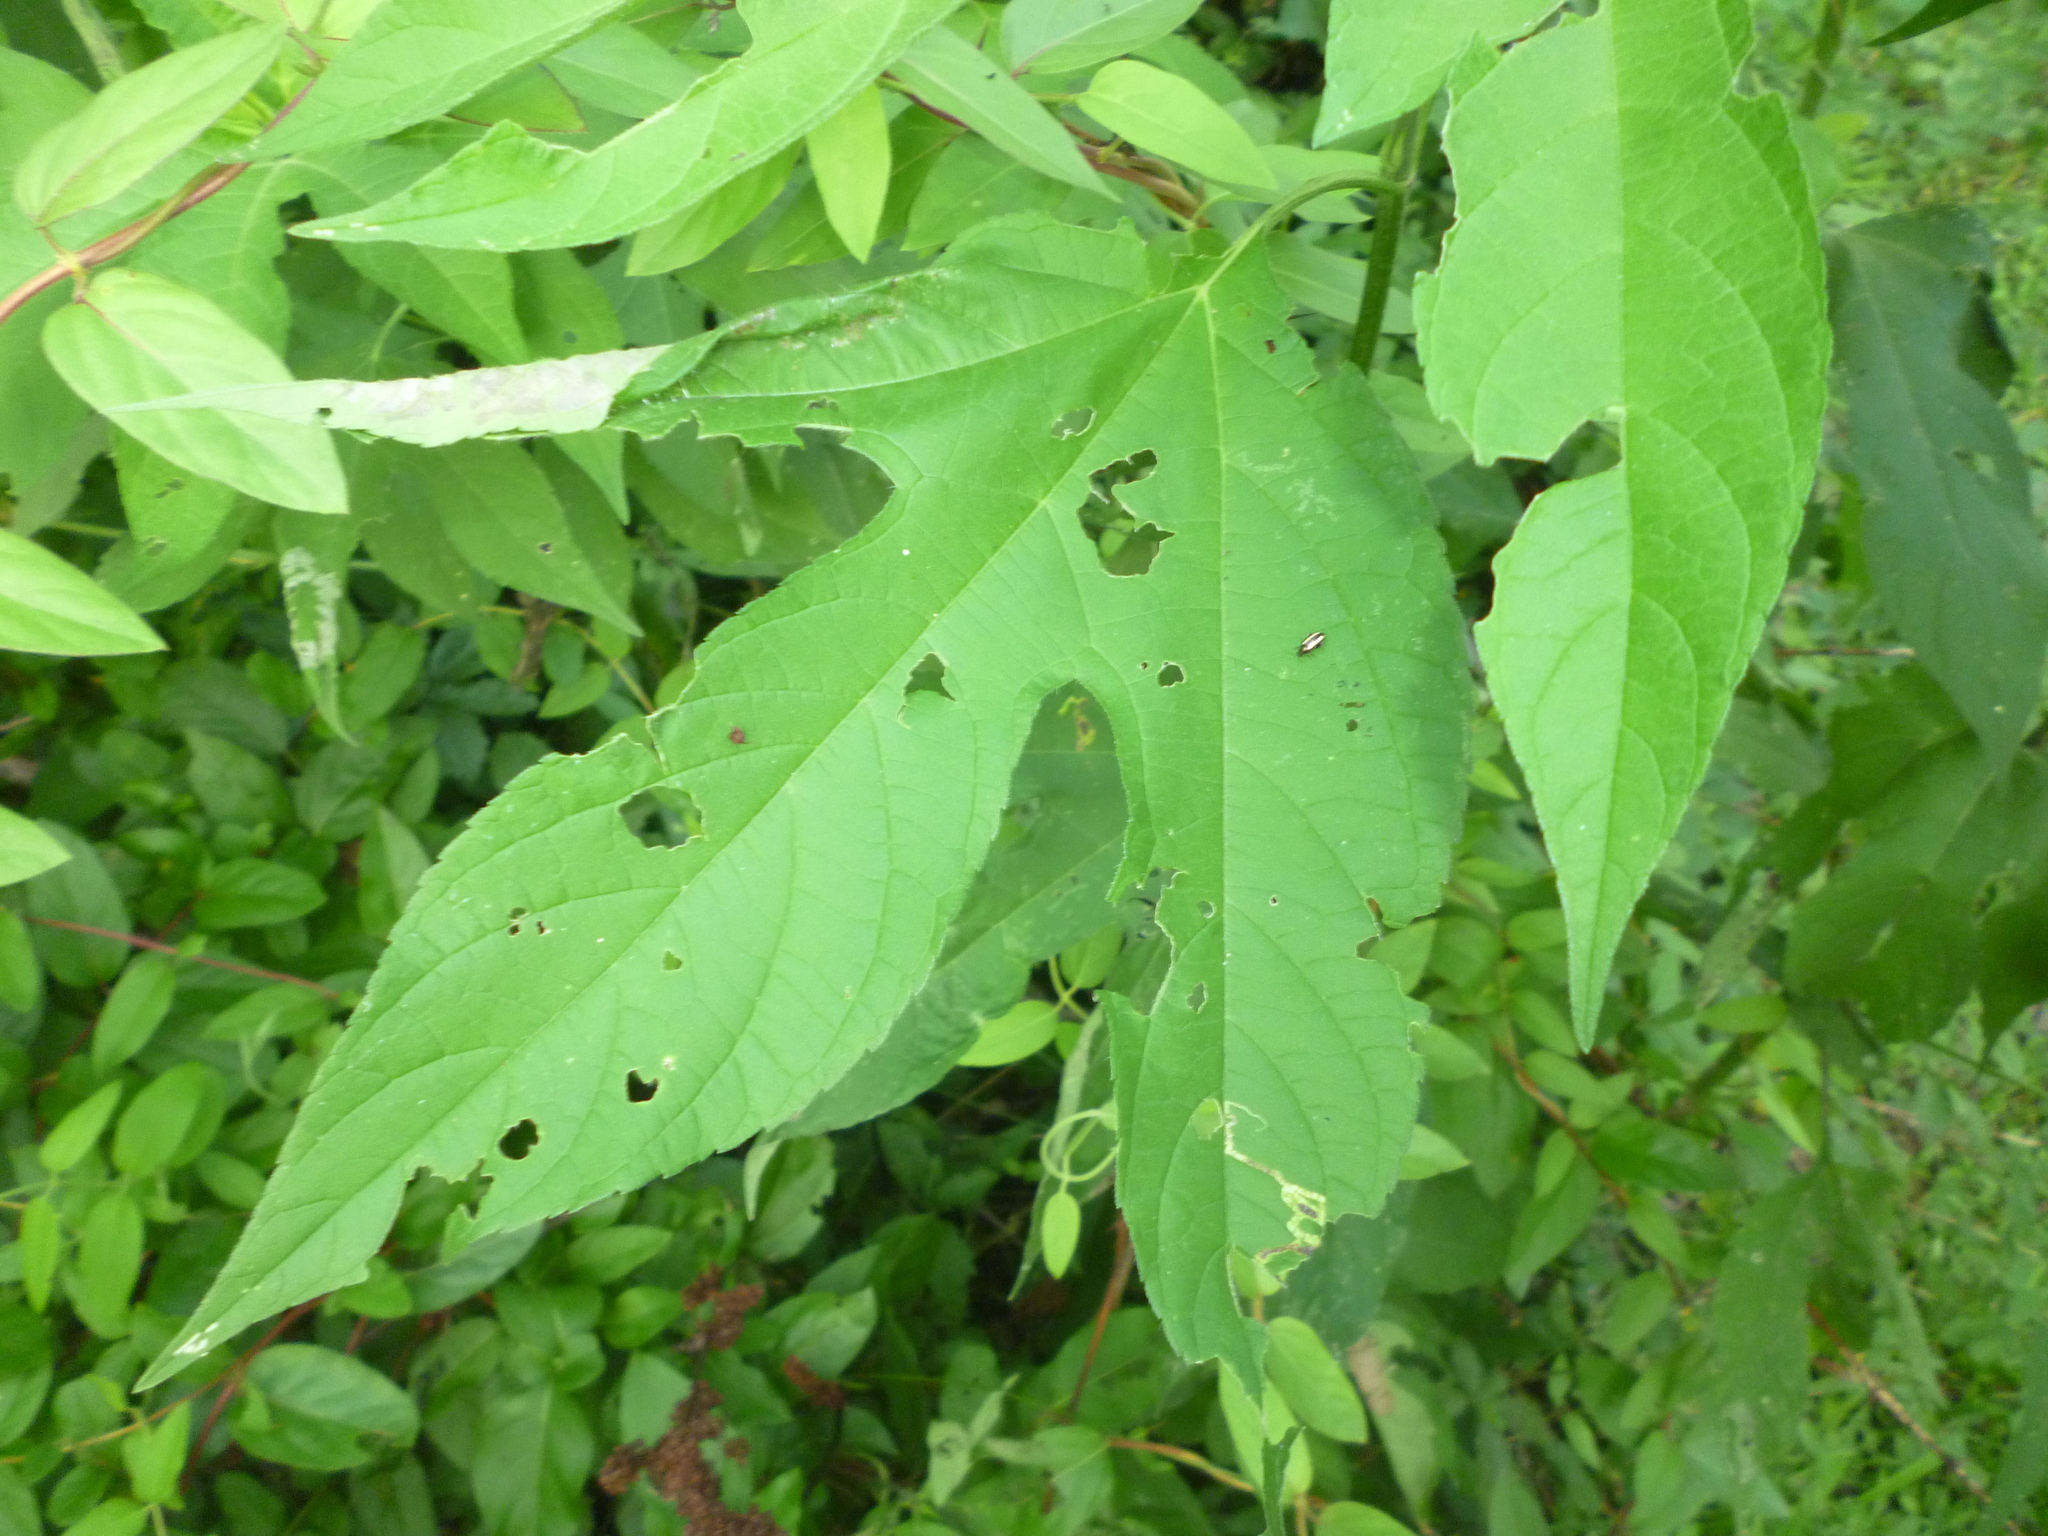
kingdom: Plantae
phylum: Tracheophyta
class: Magnoliopsida
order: Asterales
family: Asteraceae
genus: Ambrosia
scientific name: Ambrosia trifida
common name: Giant ragweed
